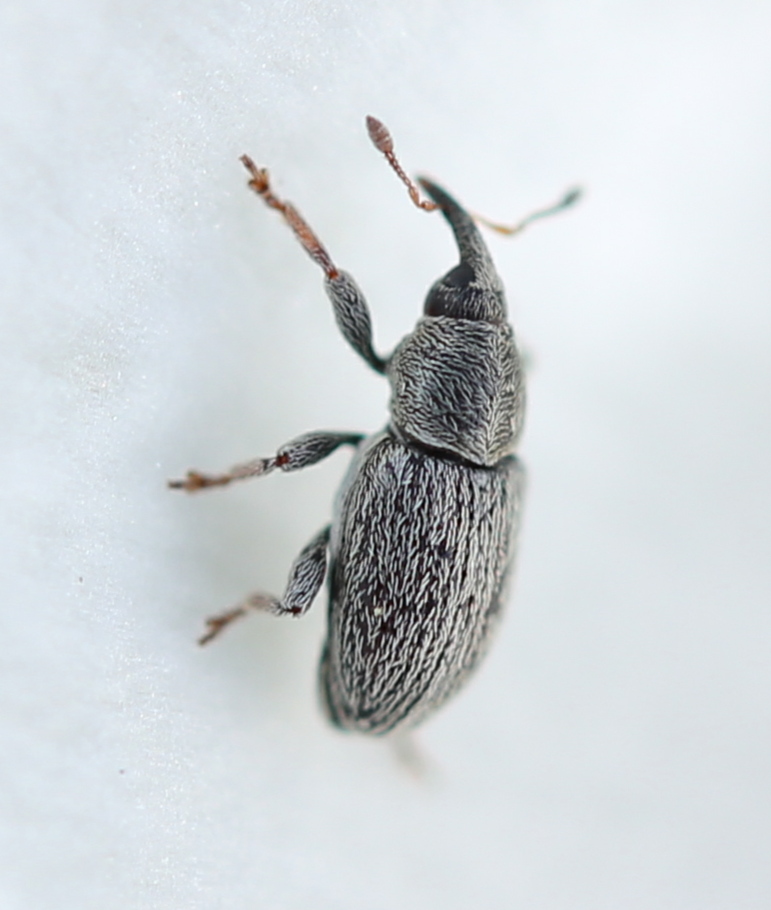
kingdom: Animalia
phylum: Arthropoda
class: Insecta
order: Coleoptera
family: Curculionidae
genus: Tychius
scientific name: Tychius picirostris
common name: Clover seed weevil
